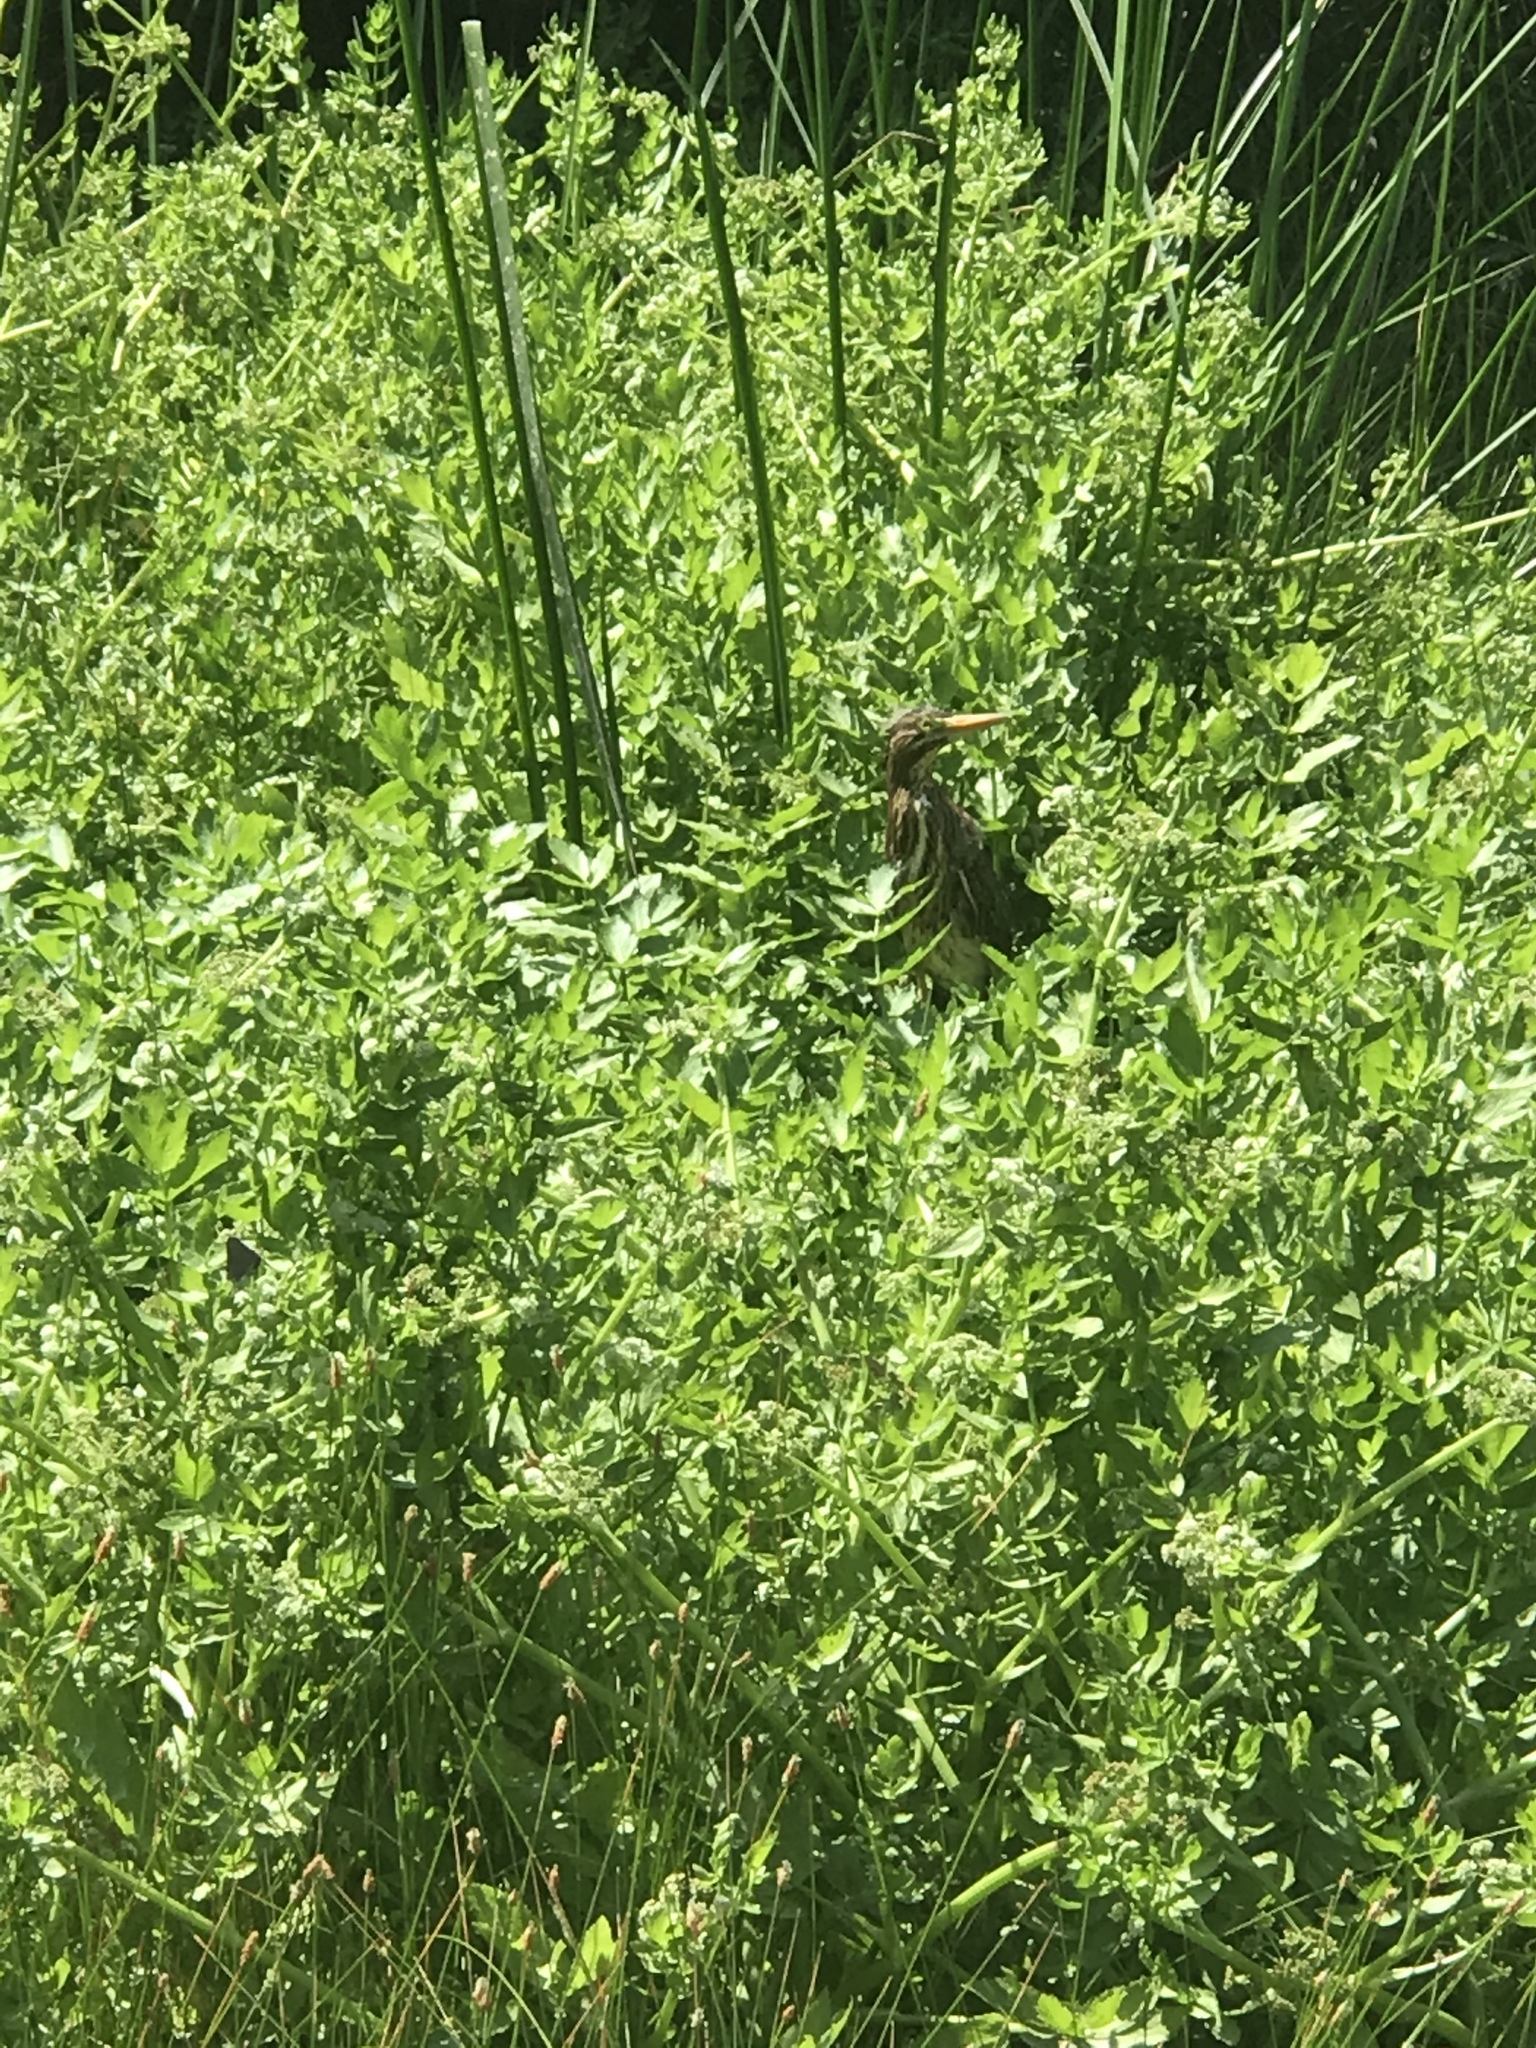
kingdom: Animalia
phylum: Chordata
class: Aves
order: Pelecaniformes
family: Ardeidae
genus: Butorides
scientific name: Butorides virescens
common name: Green heron
